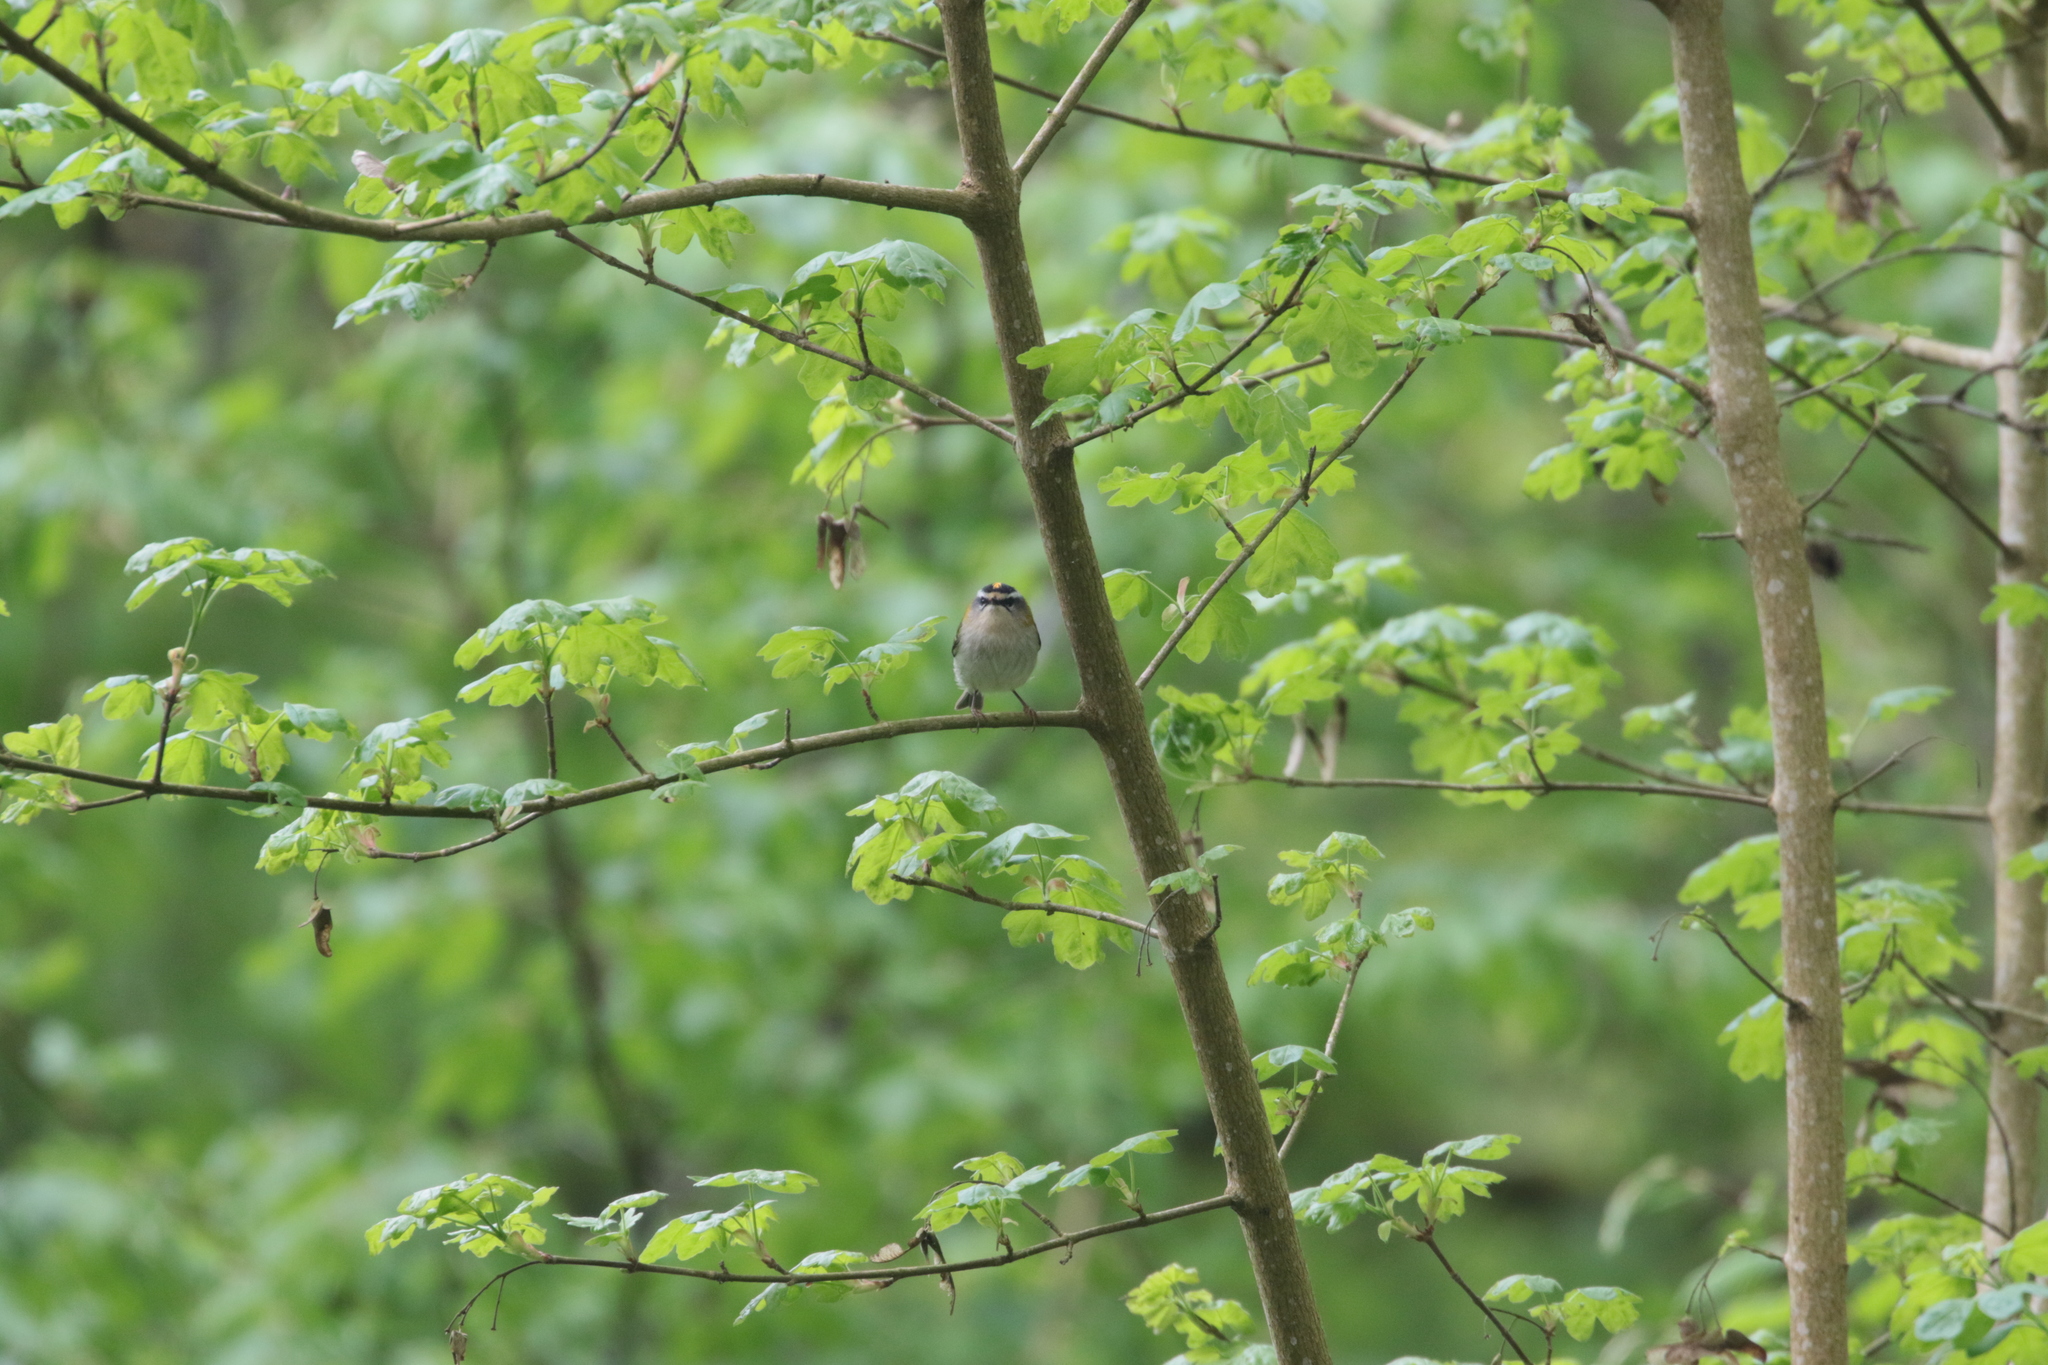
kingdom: Animalia
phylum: Chordata
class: Aves
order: Passeriformes
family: Regulidae
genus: Regulus
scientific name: Regulus ignicapilla
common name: Firecrest
